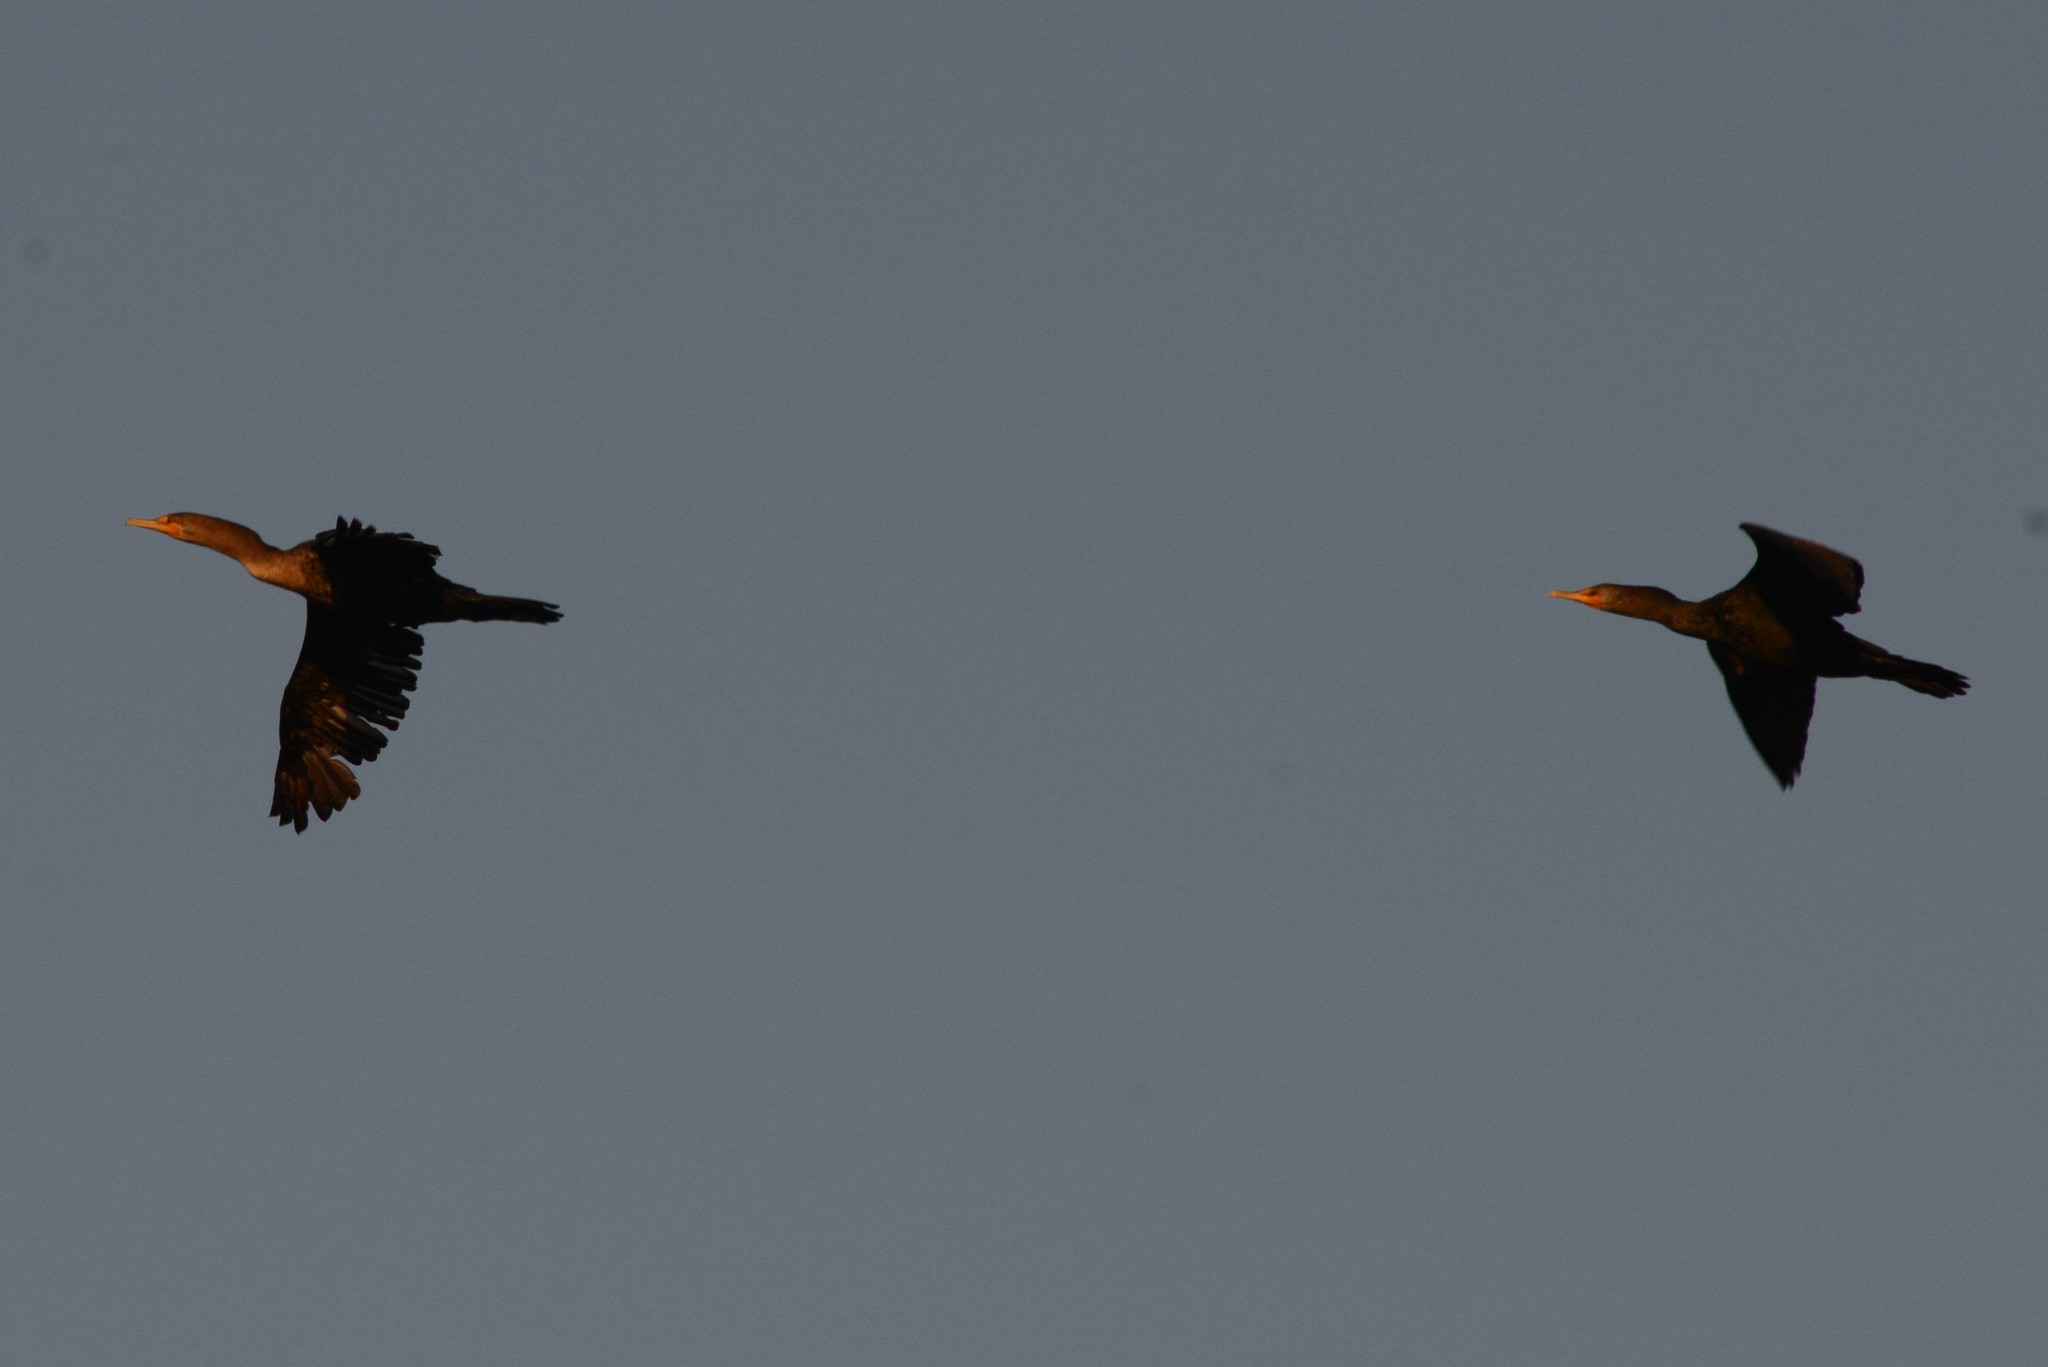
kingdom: Animalia
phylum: Chordata
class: Aves
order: Suliformes
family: Phalacrocoracidae
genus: Phalacrocorax
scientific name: Phalacrocorax auritus
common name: Double-crested cormorant
